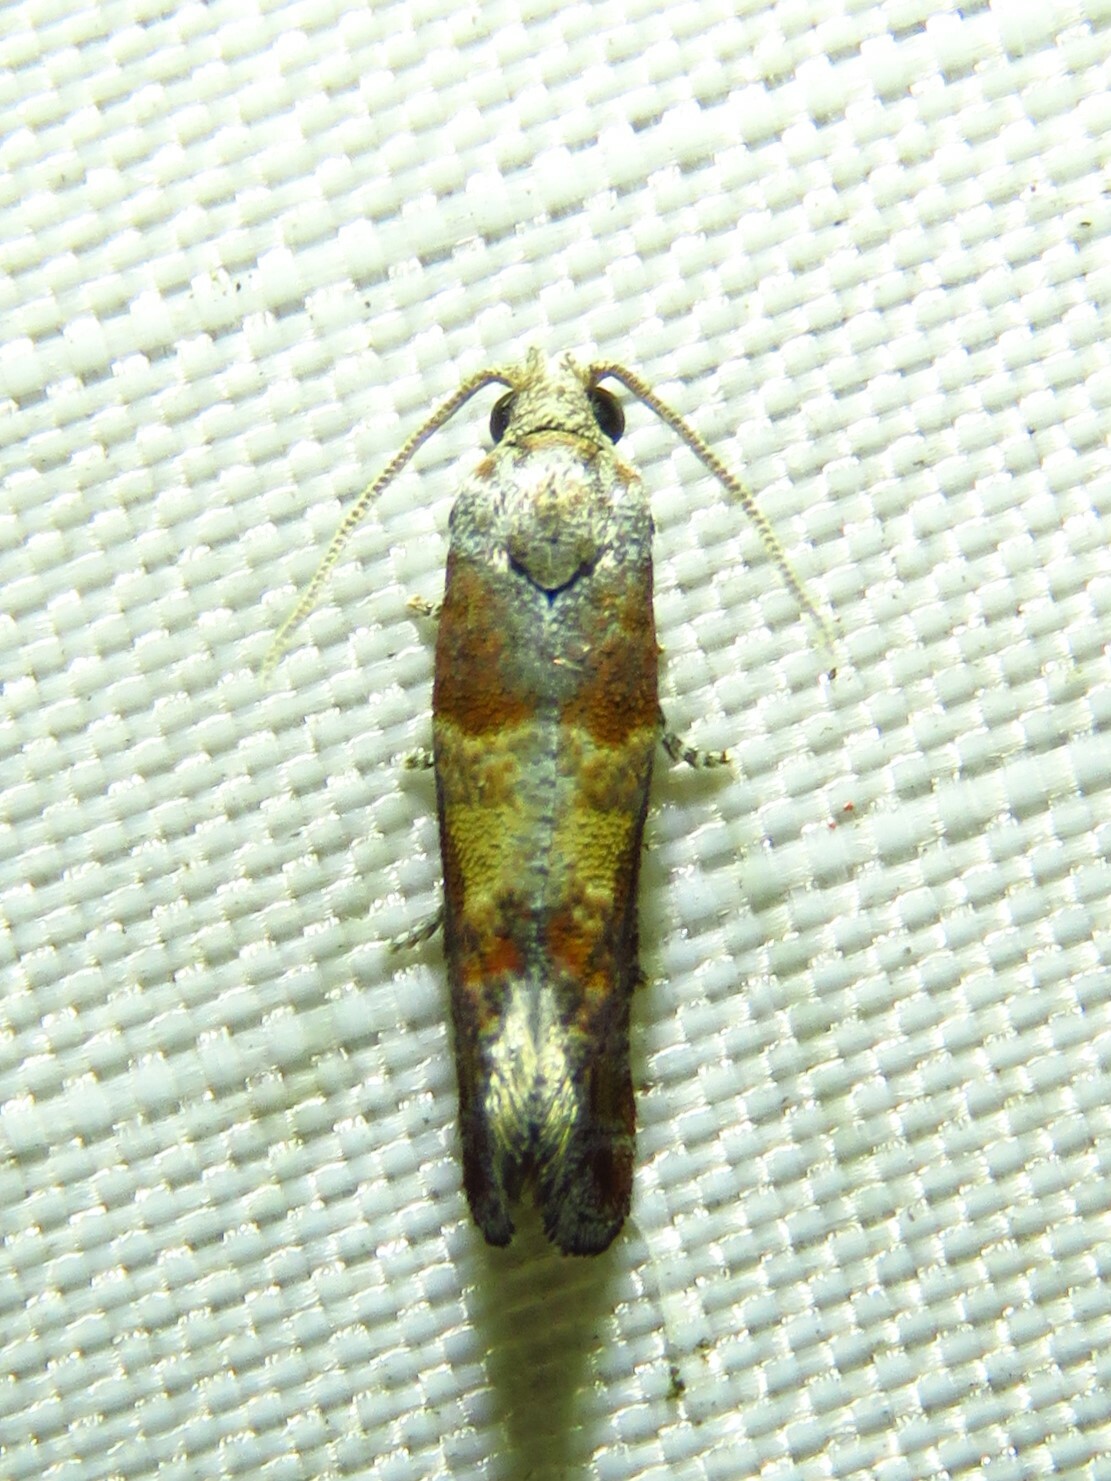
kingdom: Animalia
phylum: Arthropoda
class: Insecta
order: Lepidoptera
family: Tortricidae
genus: Rhyacionia
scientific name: Rhyacionia frustrana
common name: Nantucket pine tip moth
